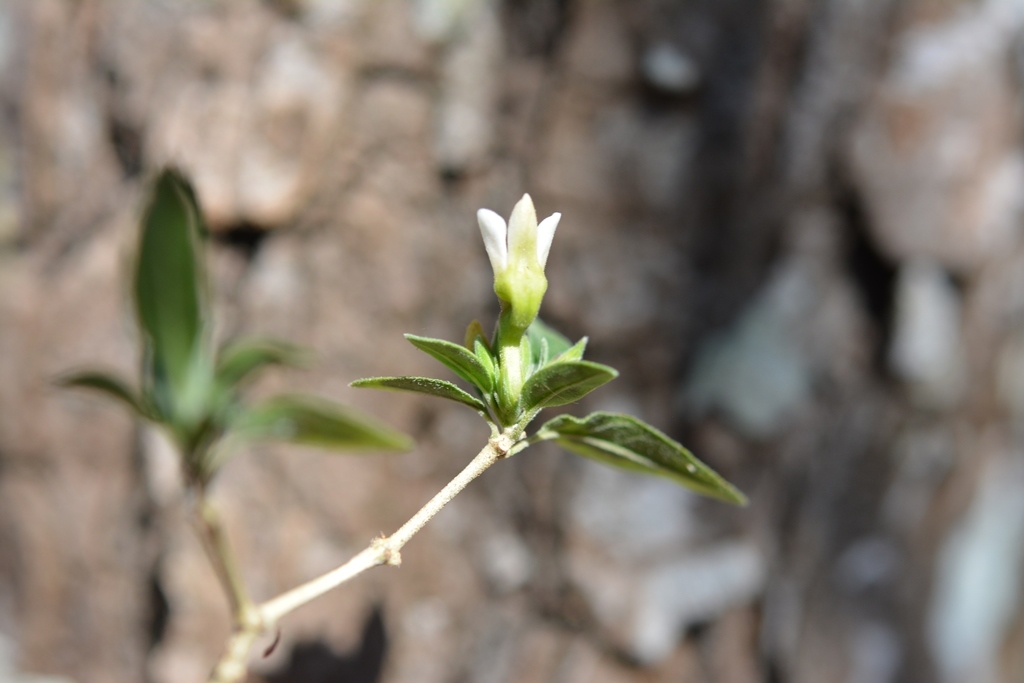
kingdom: Plantae
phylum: Tracheophyta
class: Magnoliopsida
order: Lamiales
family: Acanthaceae
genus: Holographis
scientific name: Holographis parayana
